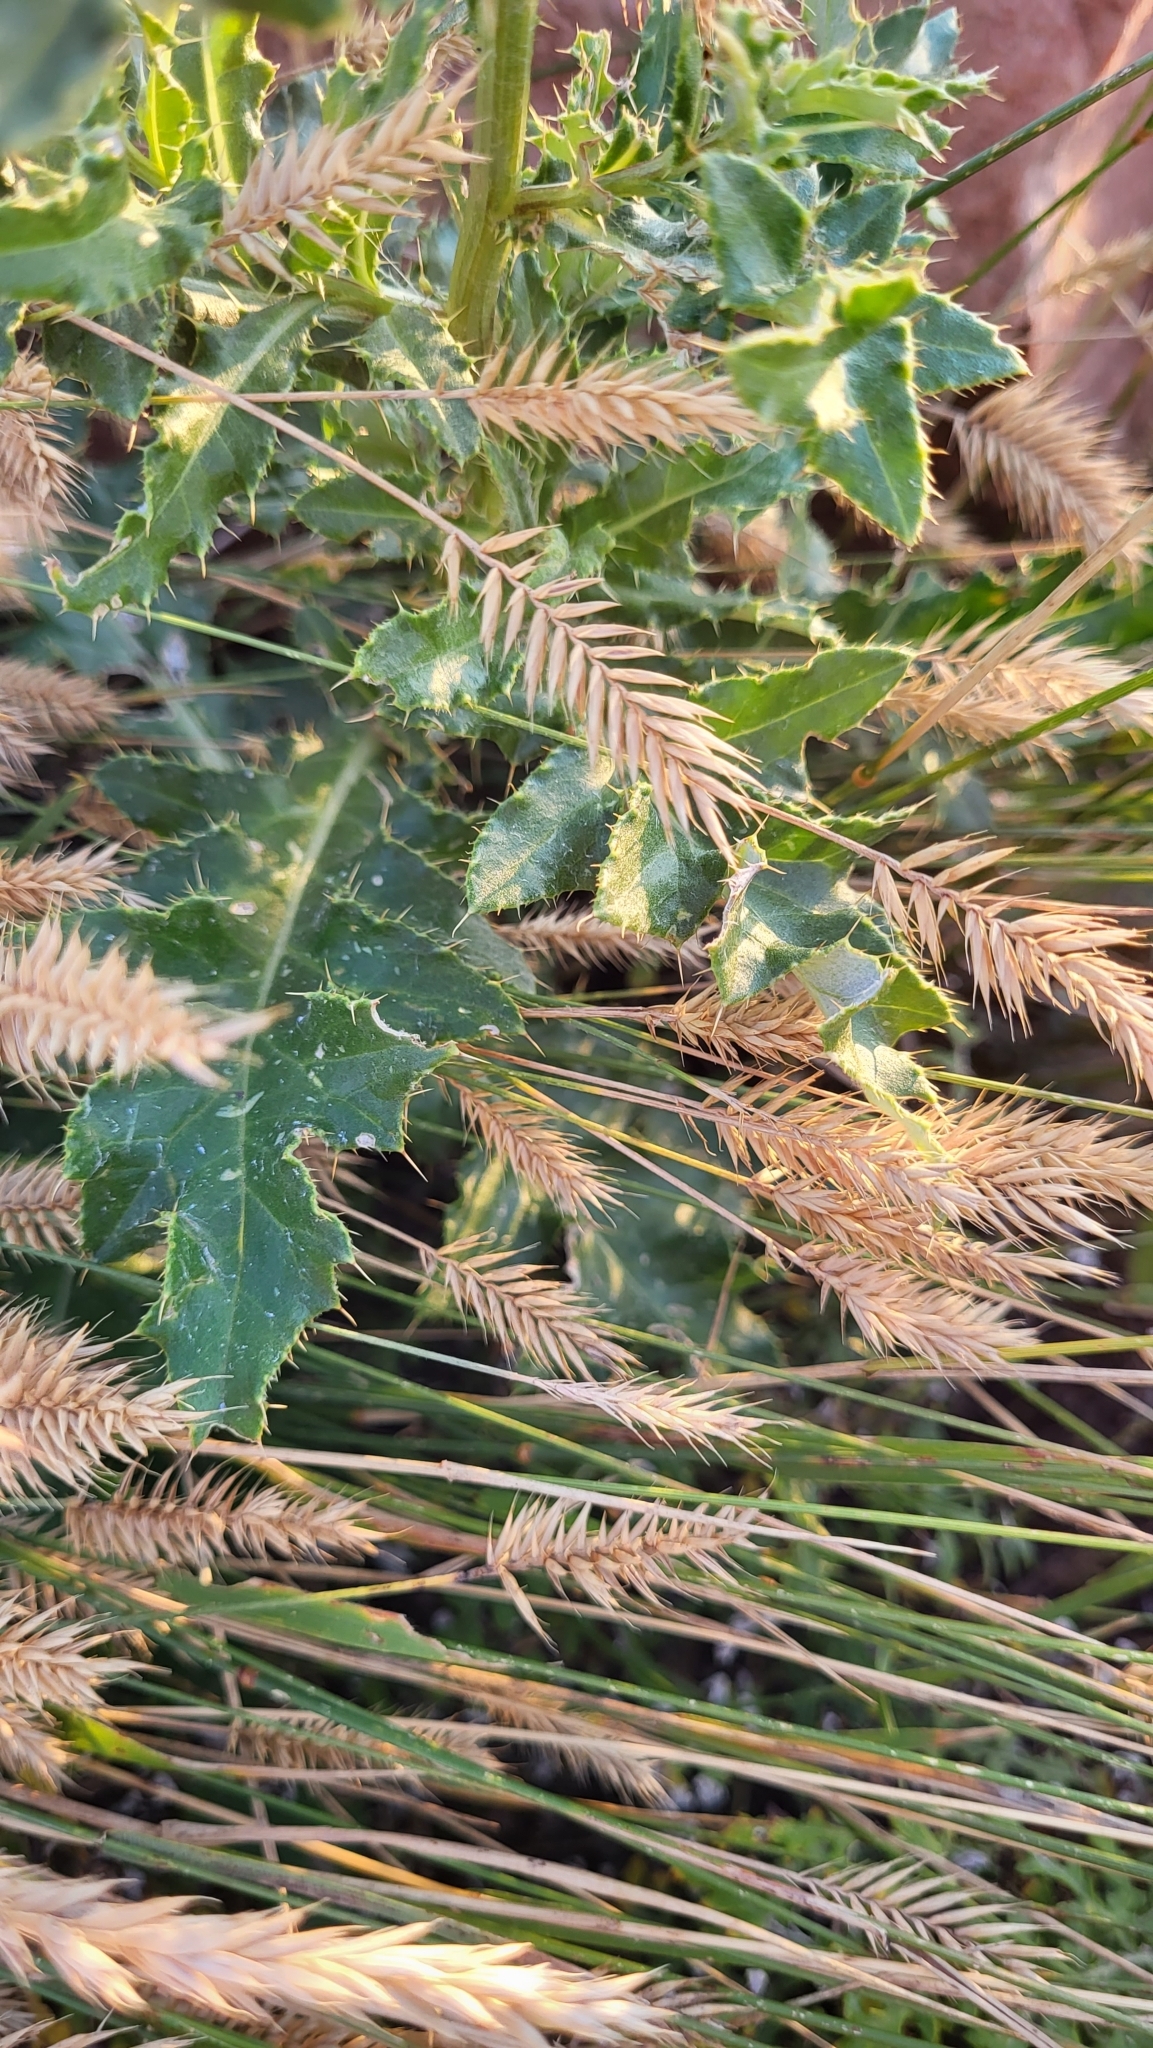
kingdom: Plantae
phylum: Tracheophyta
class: Magnoliopsida
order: Asterales
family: Asteraceae
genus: Cirsium
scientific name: Cirsium arvense
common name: Creeping thistle
